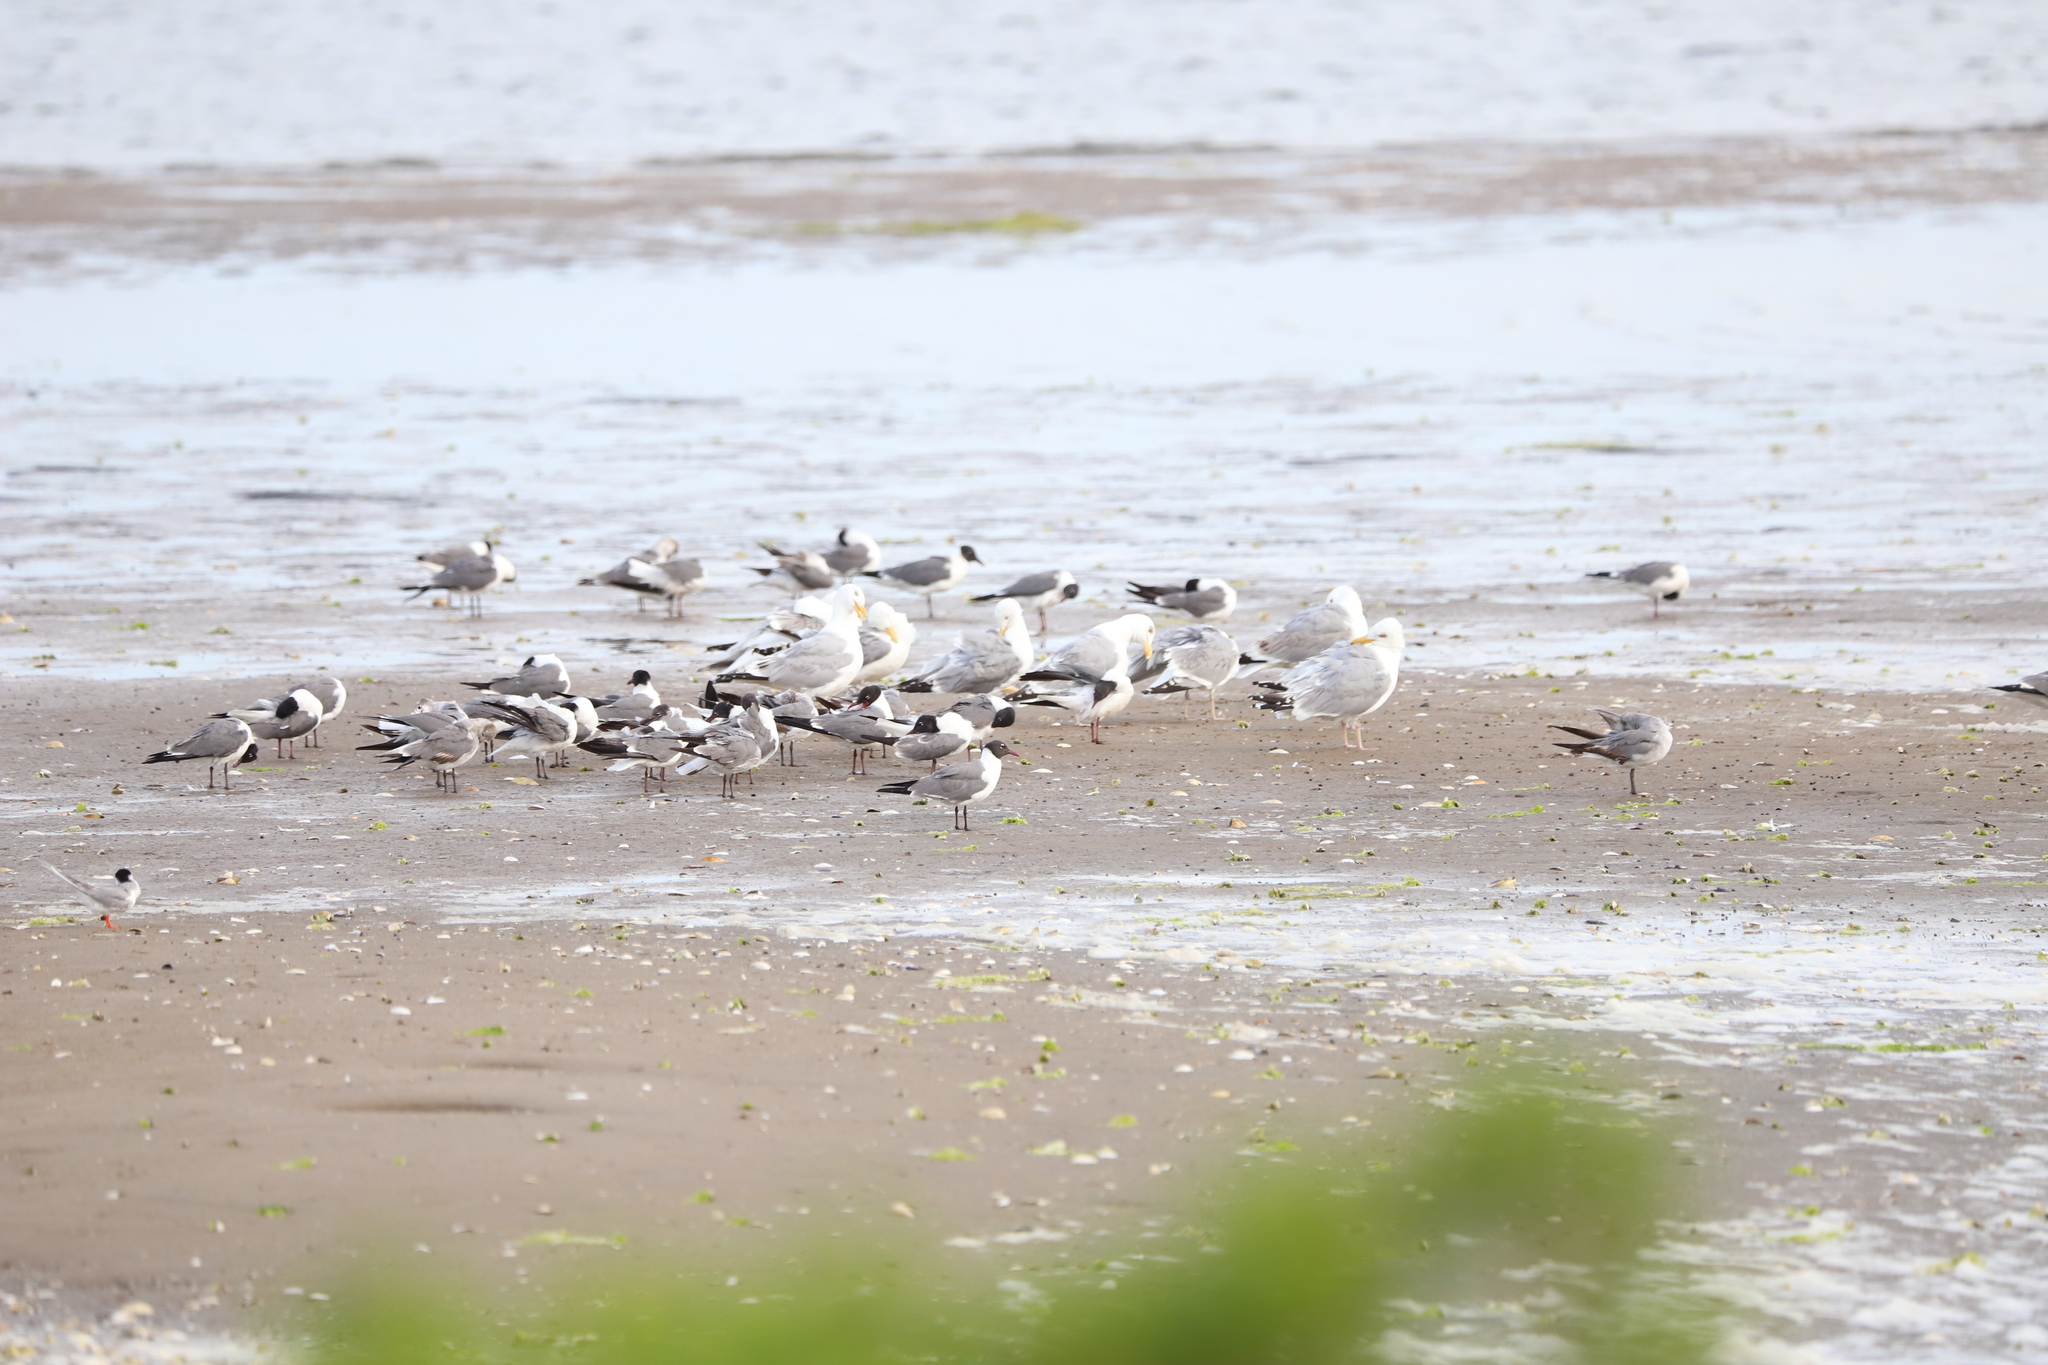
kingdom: Animalia
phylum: Chordata
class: Aves
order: Charadriiformes
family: Laridae
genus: Leucophaeus
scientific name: Leucophaeus atricilla
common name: Laughing gull
